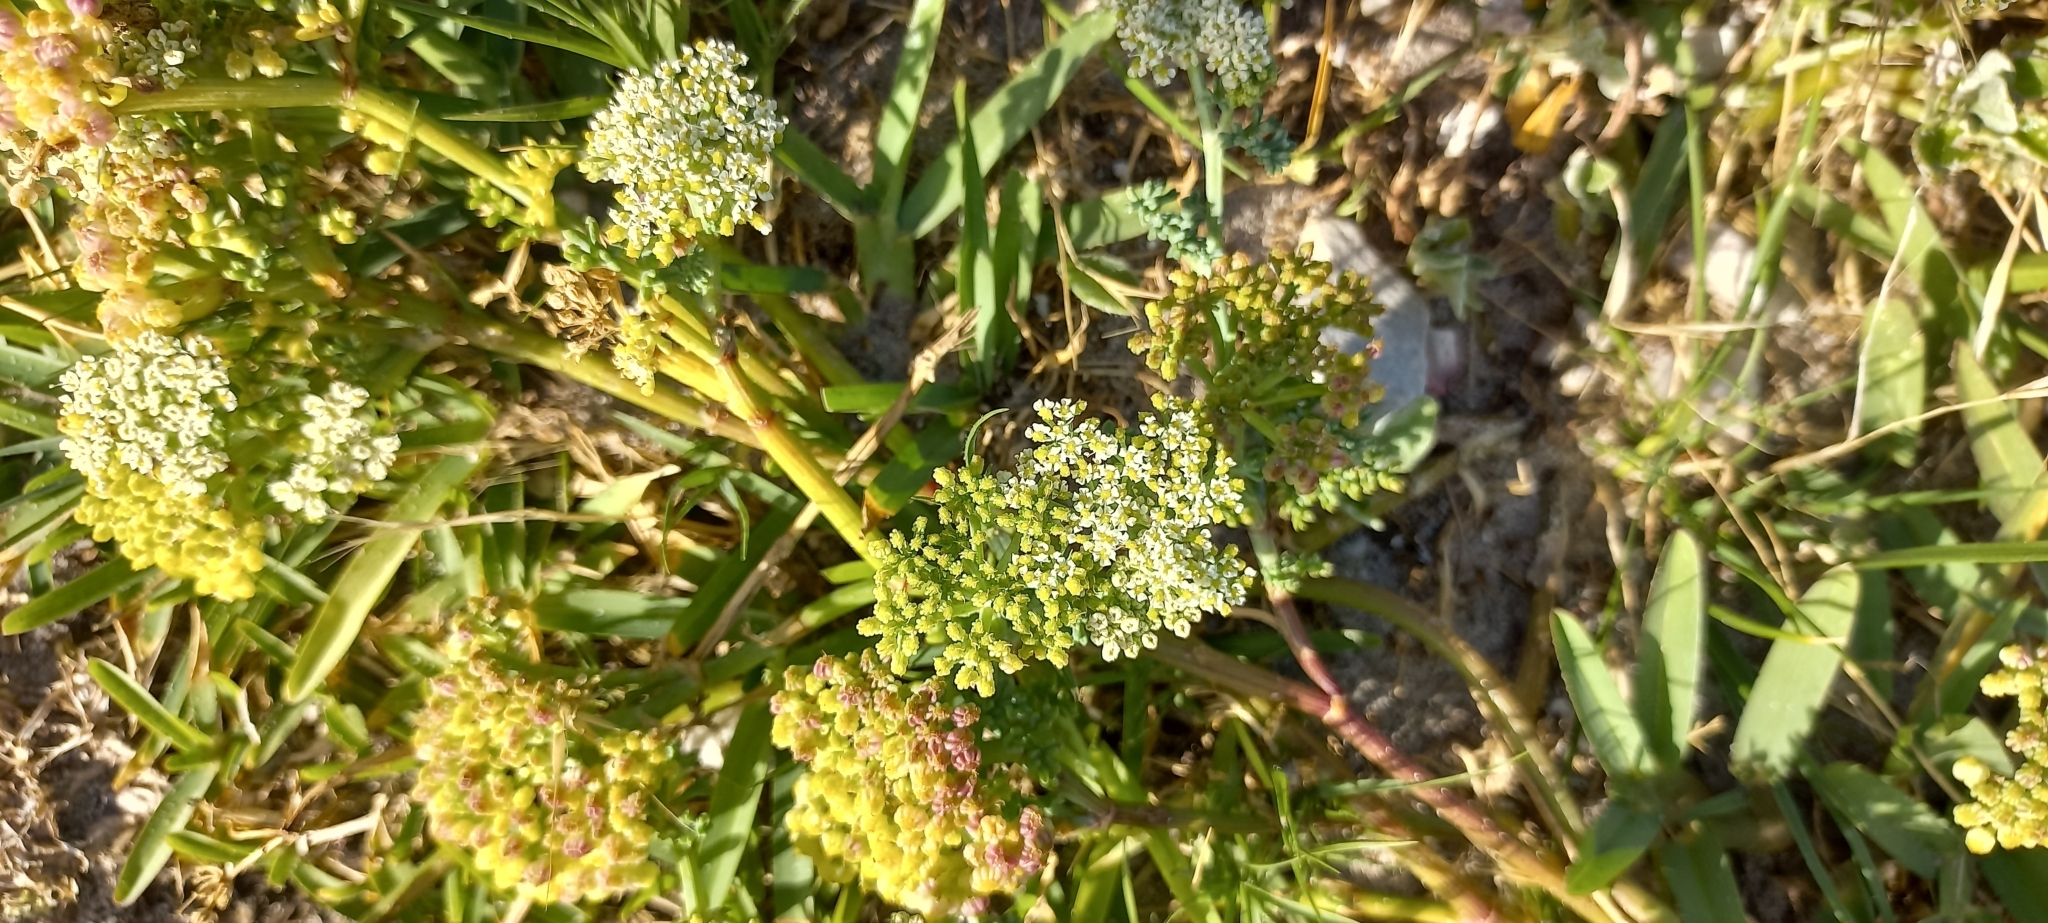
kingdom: Plantae
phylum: Tracheophyta
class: Magnoliopsida
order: Apiales
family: Apiaceae
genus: Dasispermum
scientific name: Dasispermum suffruticosum
